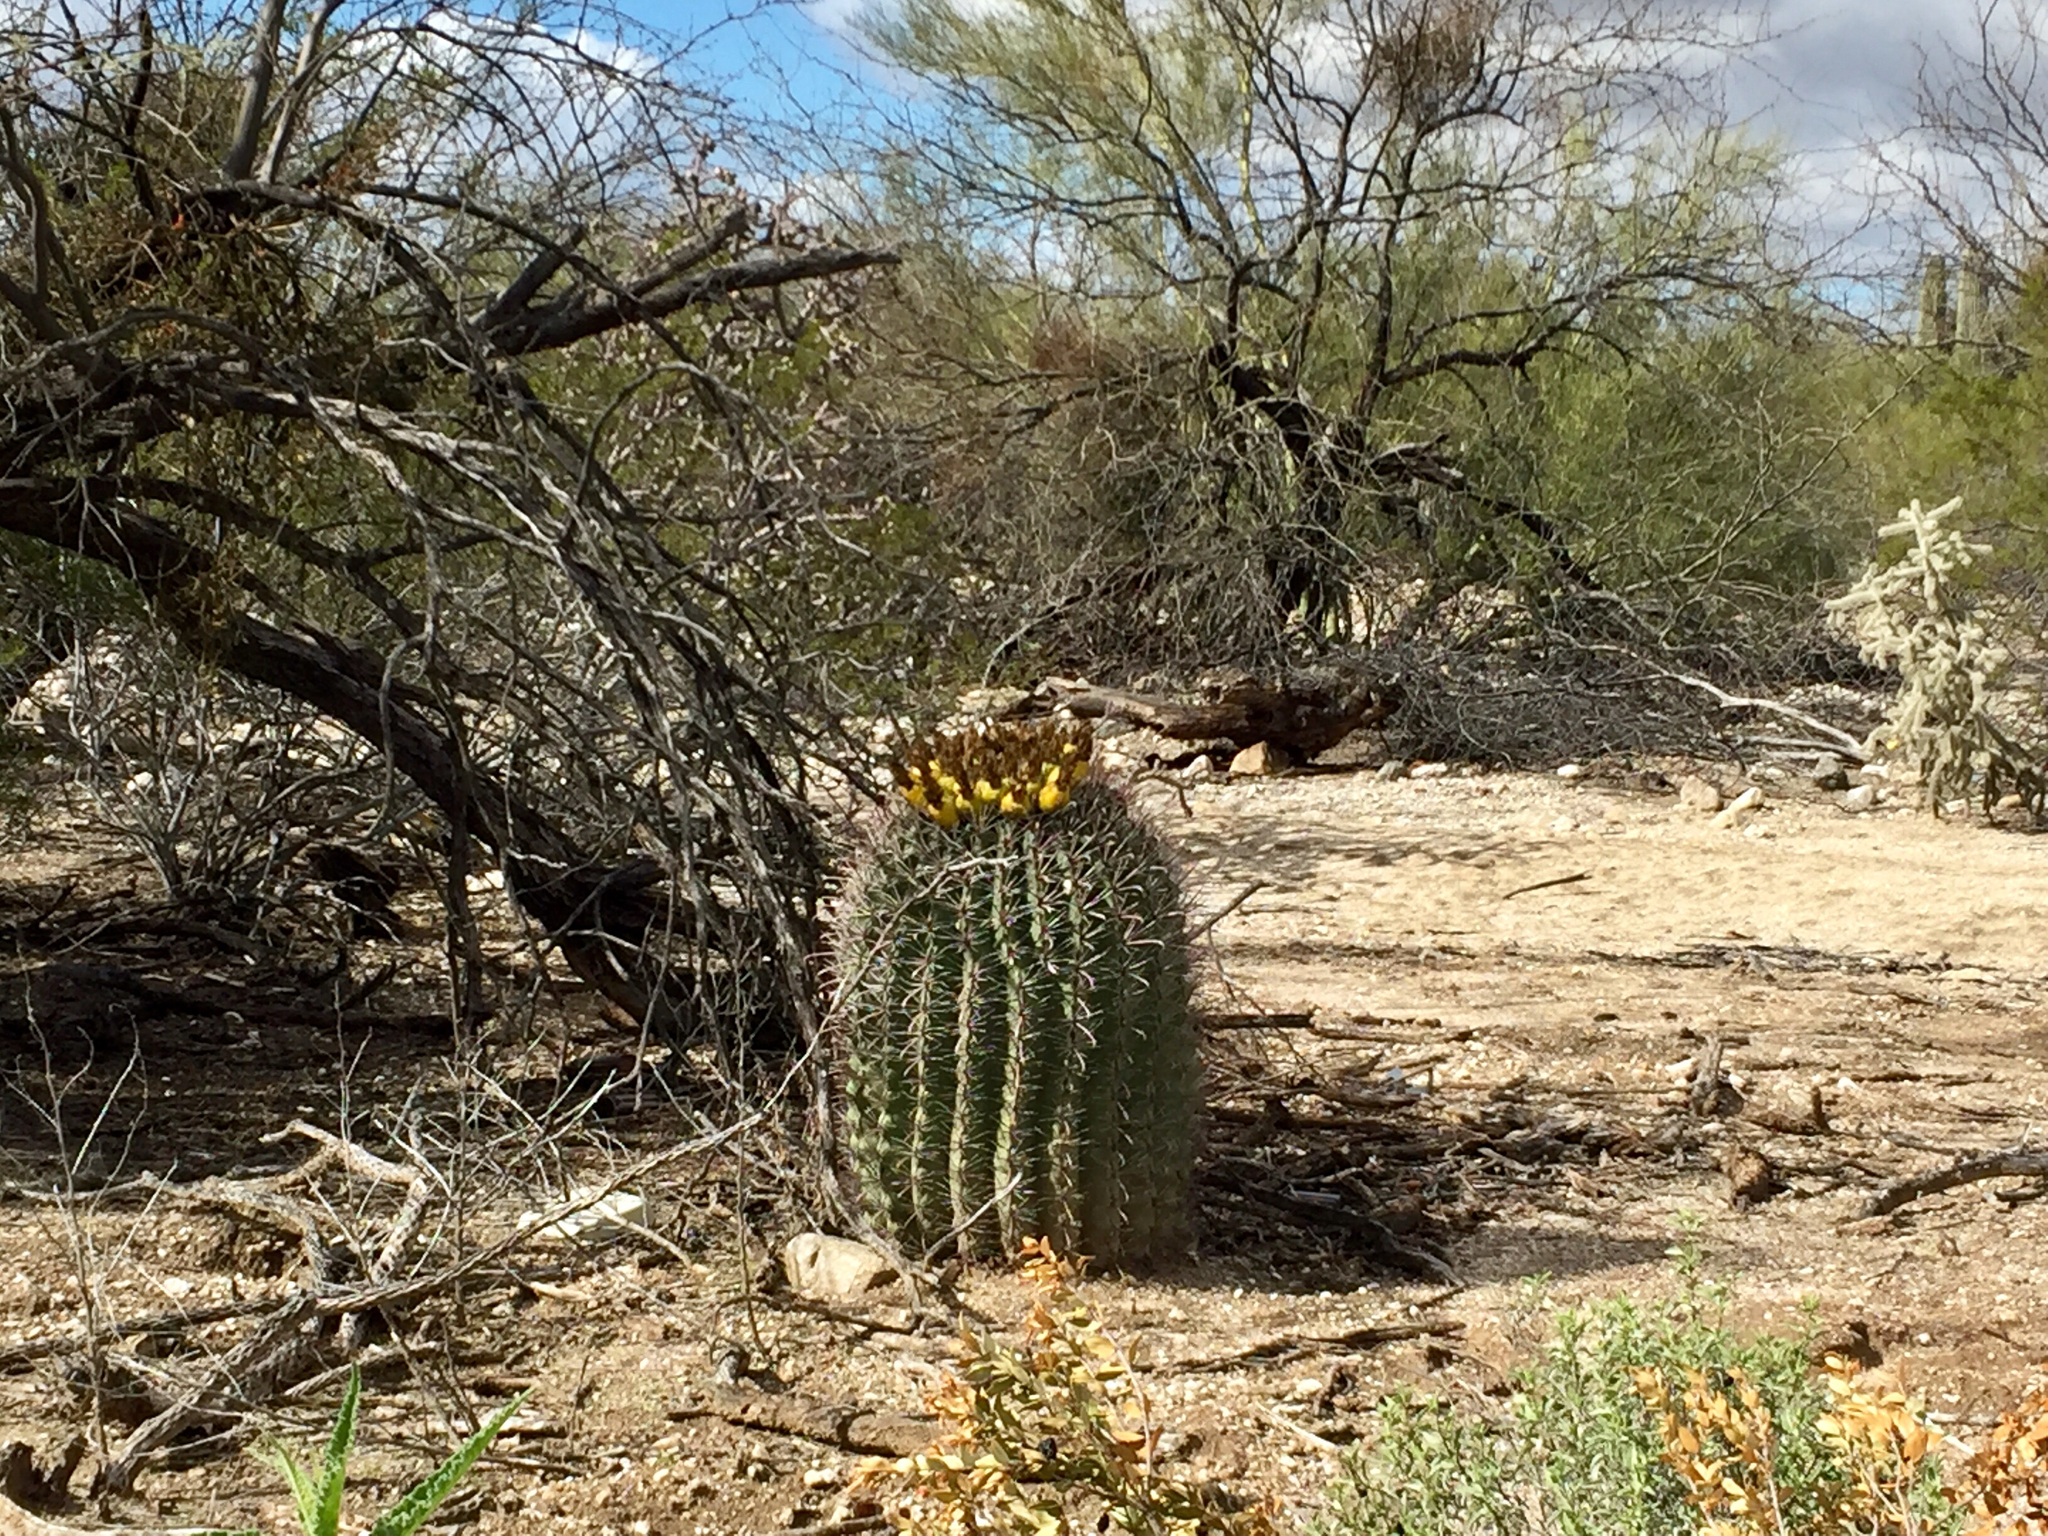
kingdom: Plantae
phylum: Tracheophyta
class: Magnoliopsida
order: Caryophyllales
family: Cactaceae
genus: Ferocactus
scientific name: Ferocactus wislizeni
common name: Candy barrel cactus
